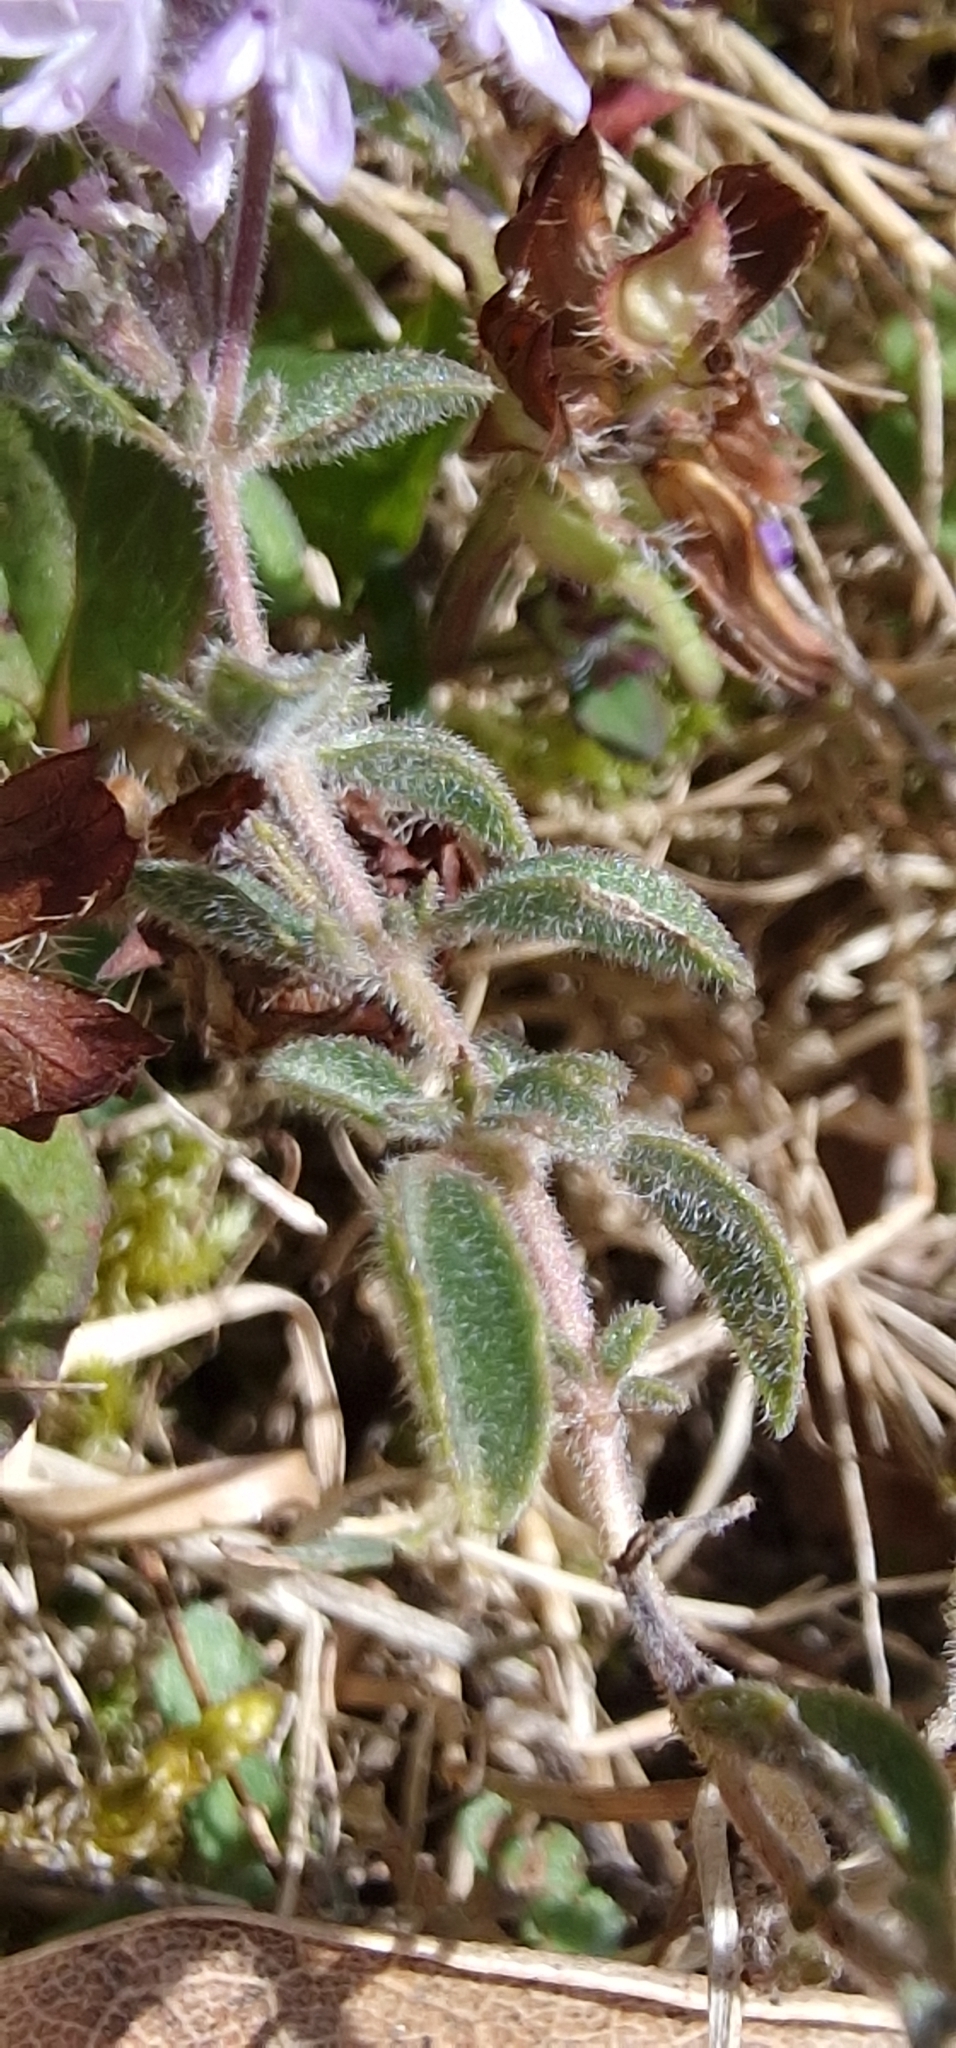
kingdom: Plantae
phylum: Tracheophyta
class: Magnoliopsida
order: Lamiales
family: Lamiaceae
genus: Mentha
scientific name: Mentha pulegium
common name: Pennyroyal
